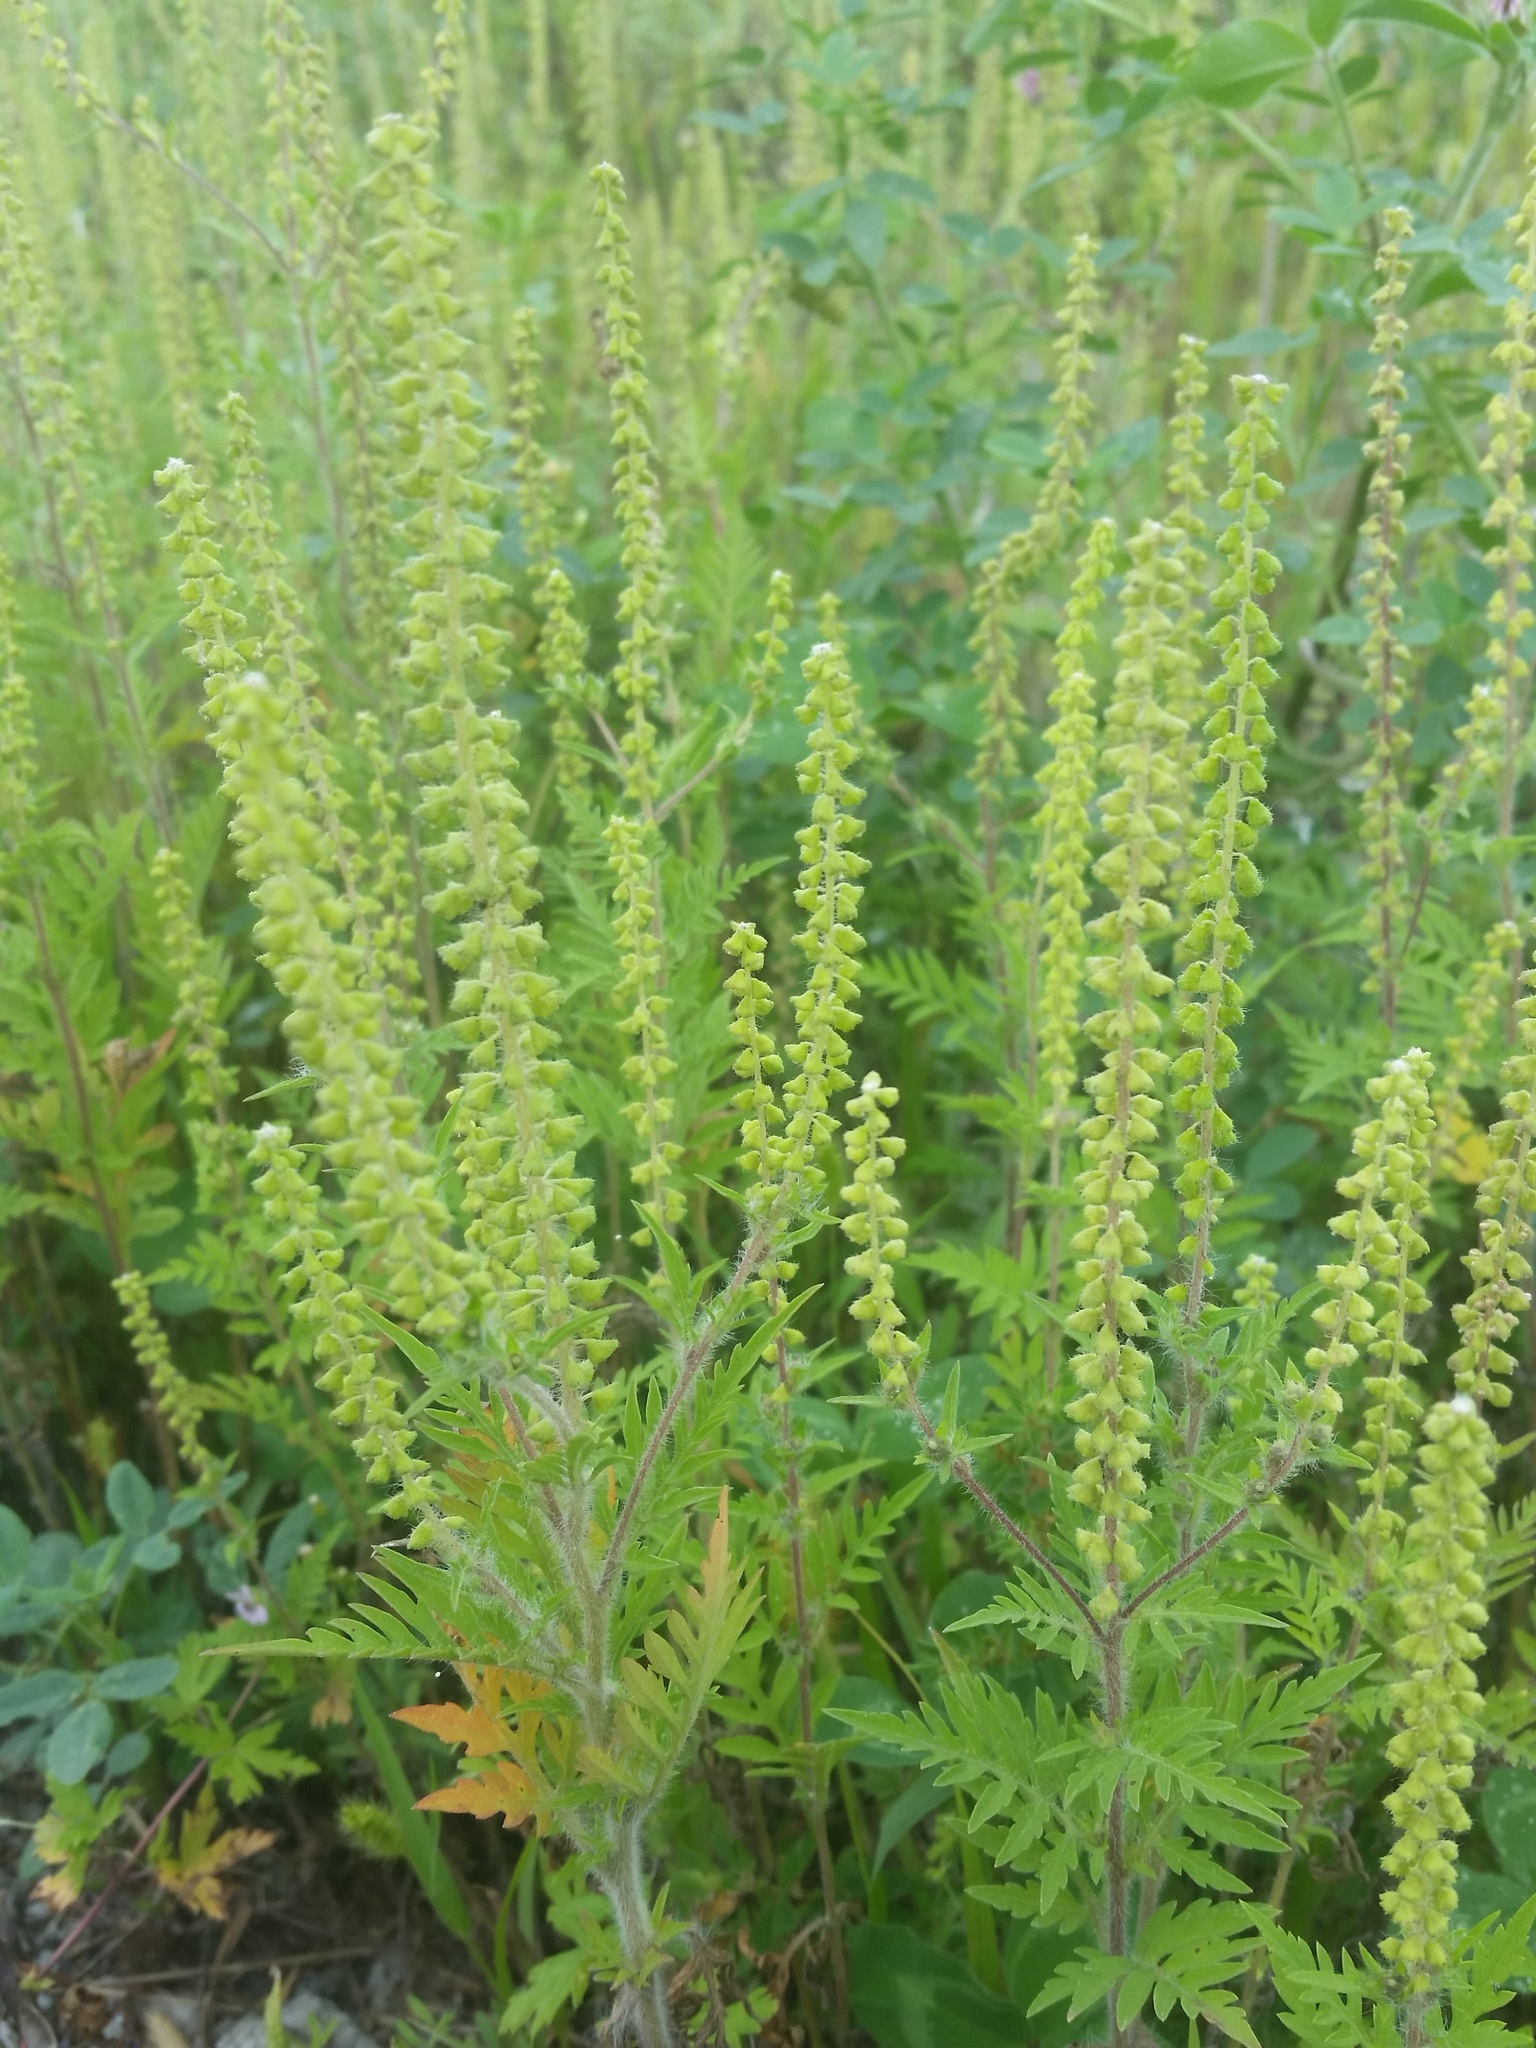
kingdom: Plantae
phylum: Tracheophyta
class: Magnoliopsida
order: Asterales
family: Asteraceae
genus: Ambrosia
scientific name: Ambrosia artemisiifolia
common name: Annual ragweed
